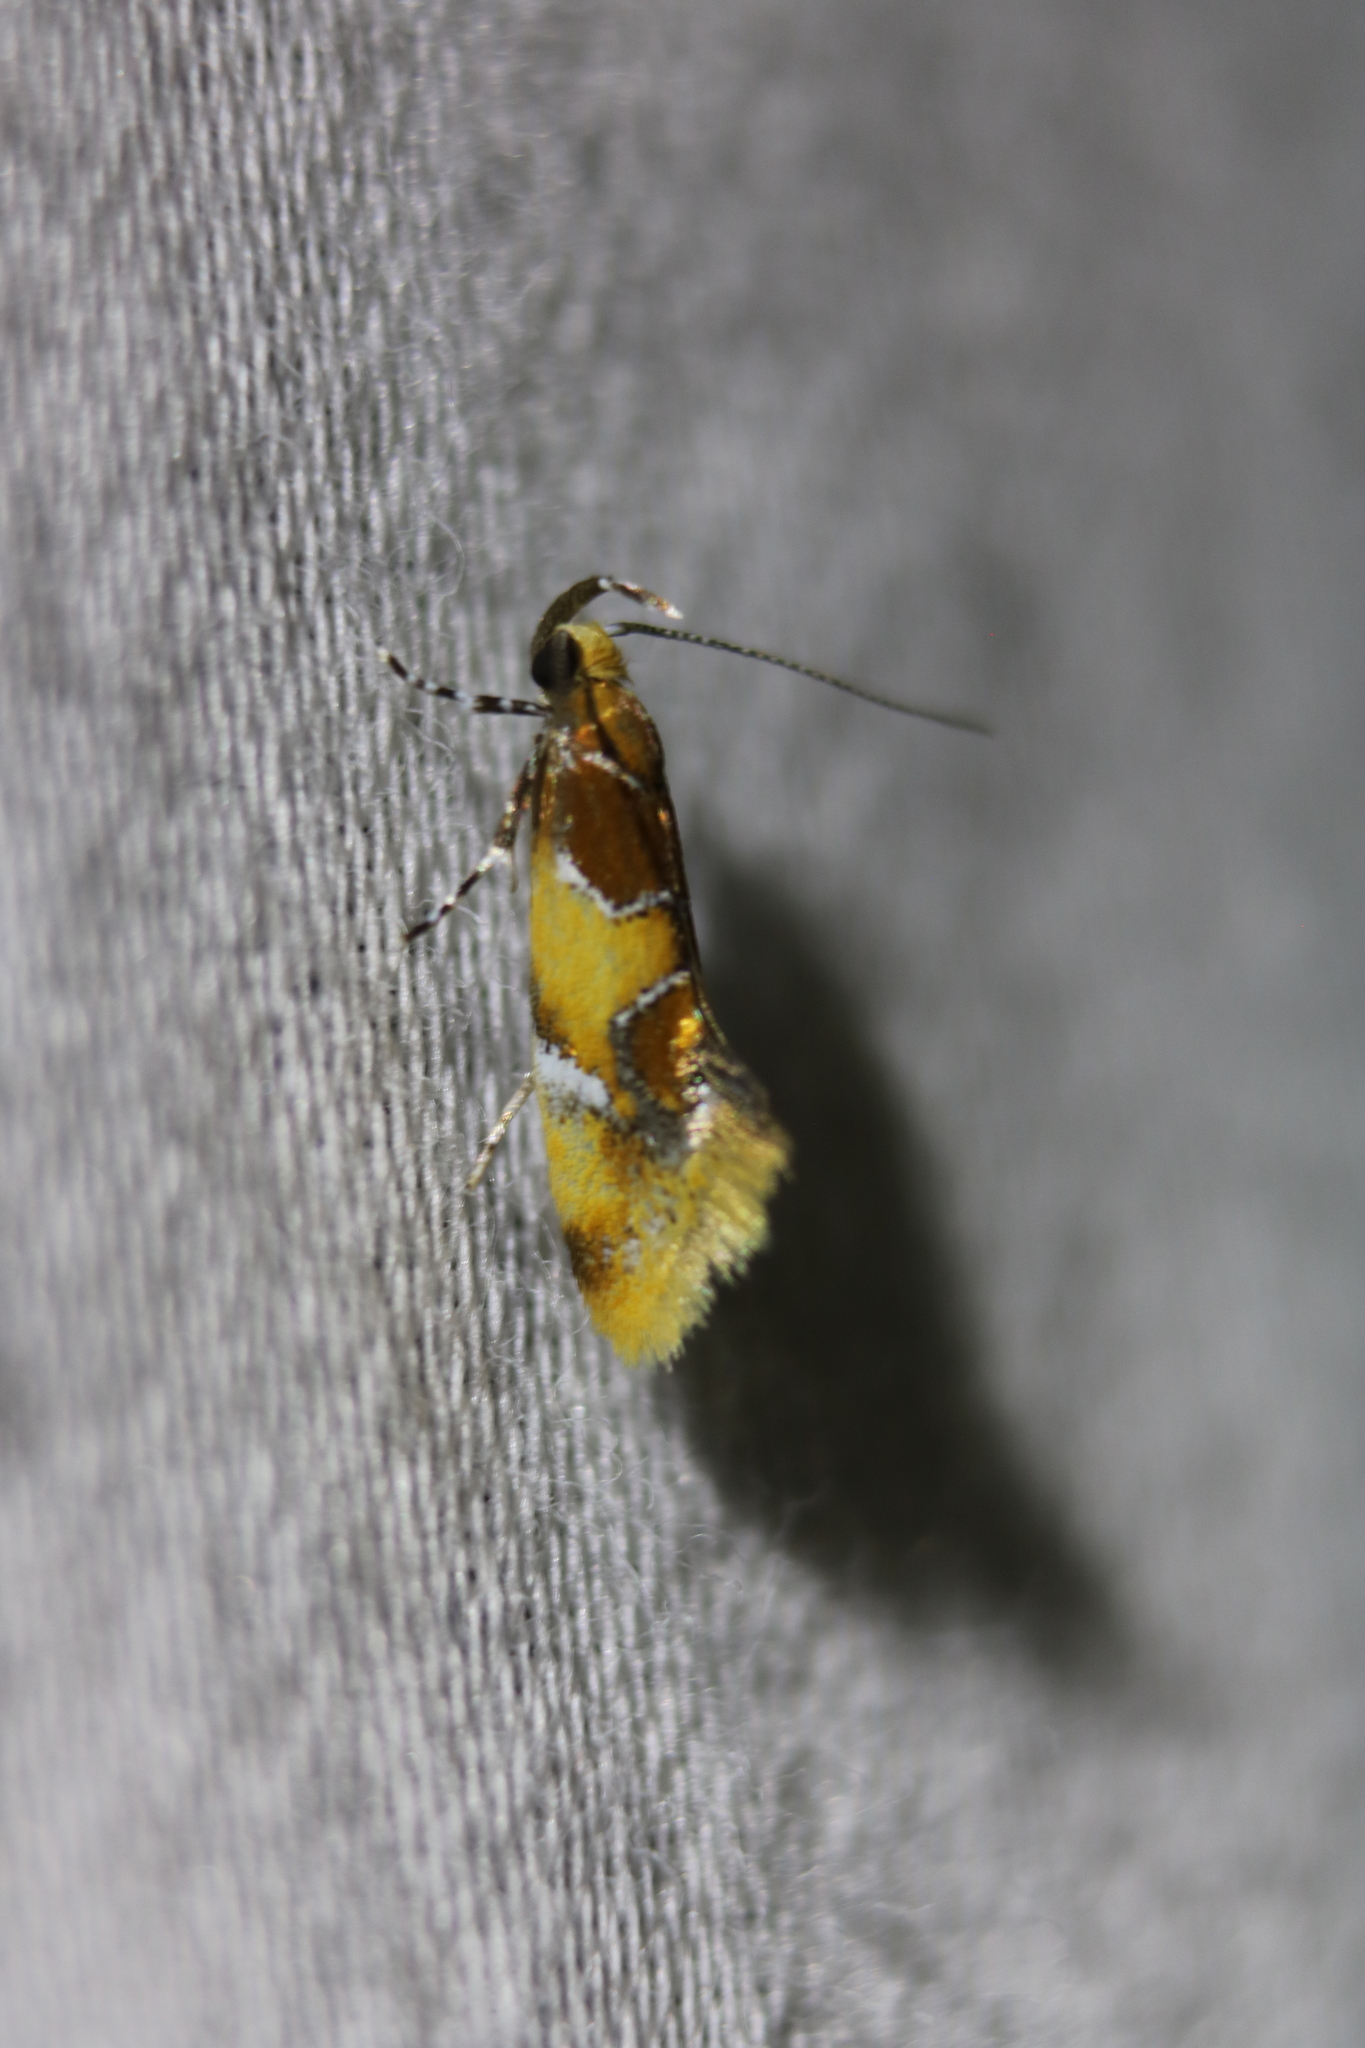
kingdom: Animalia
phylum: Arthropoda
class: Insecta
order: Lepidoptera
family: Oecophoridae
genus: Callima
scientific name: Callima argenticinctella
